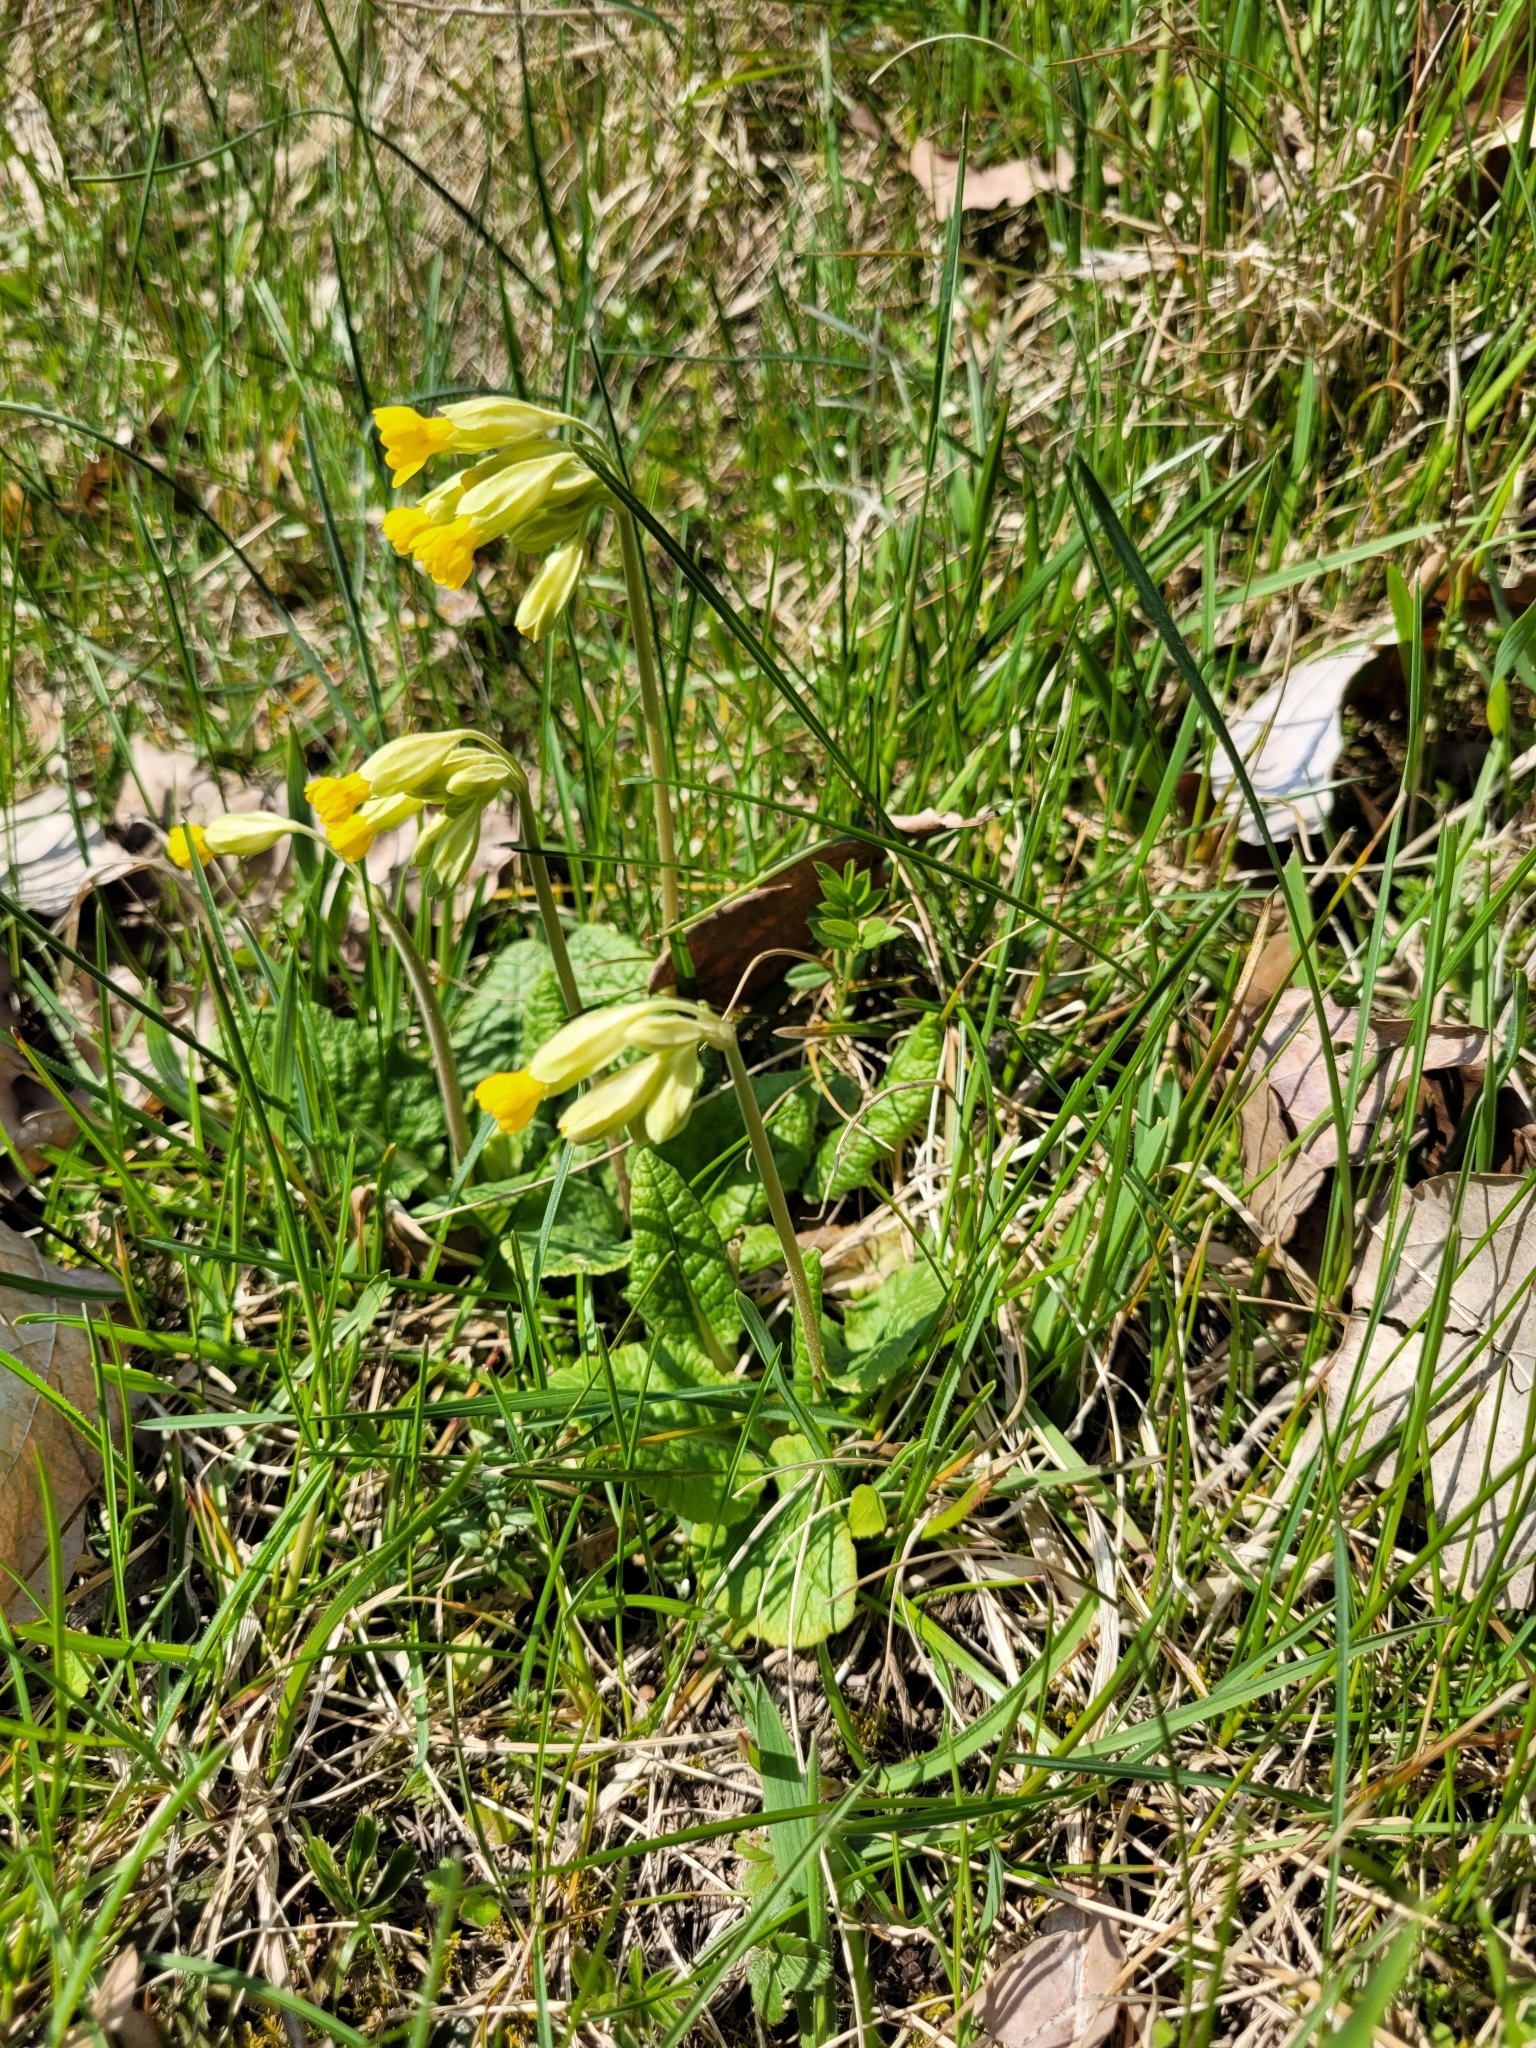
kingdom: Plantae
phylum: Tracheophyta
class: Magnoliopsida
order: Ericales
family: Primulaceae
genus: Primula
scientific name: Primula veris
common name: Cowslip
